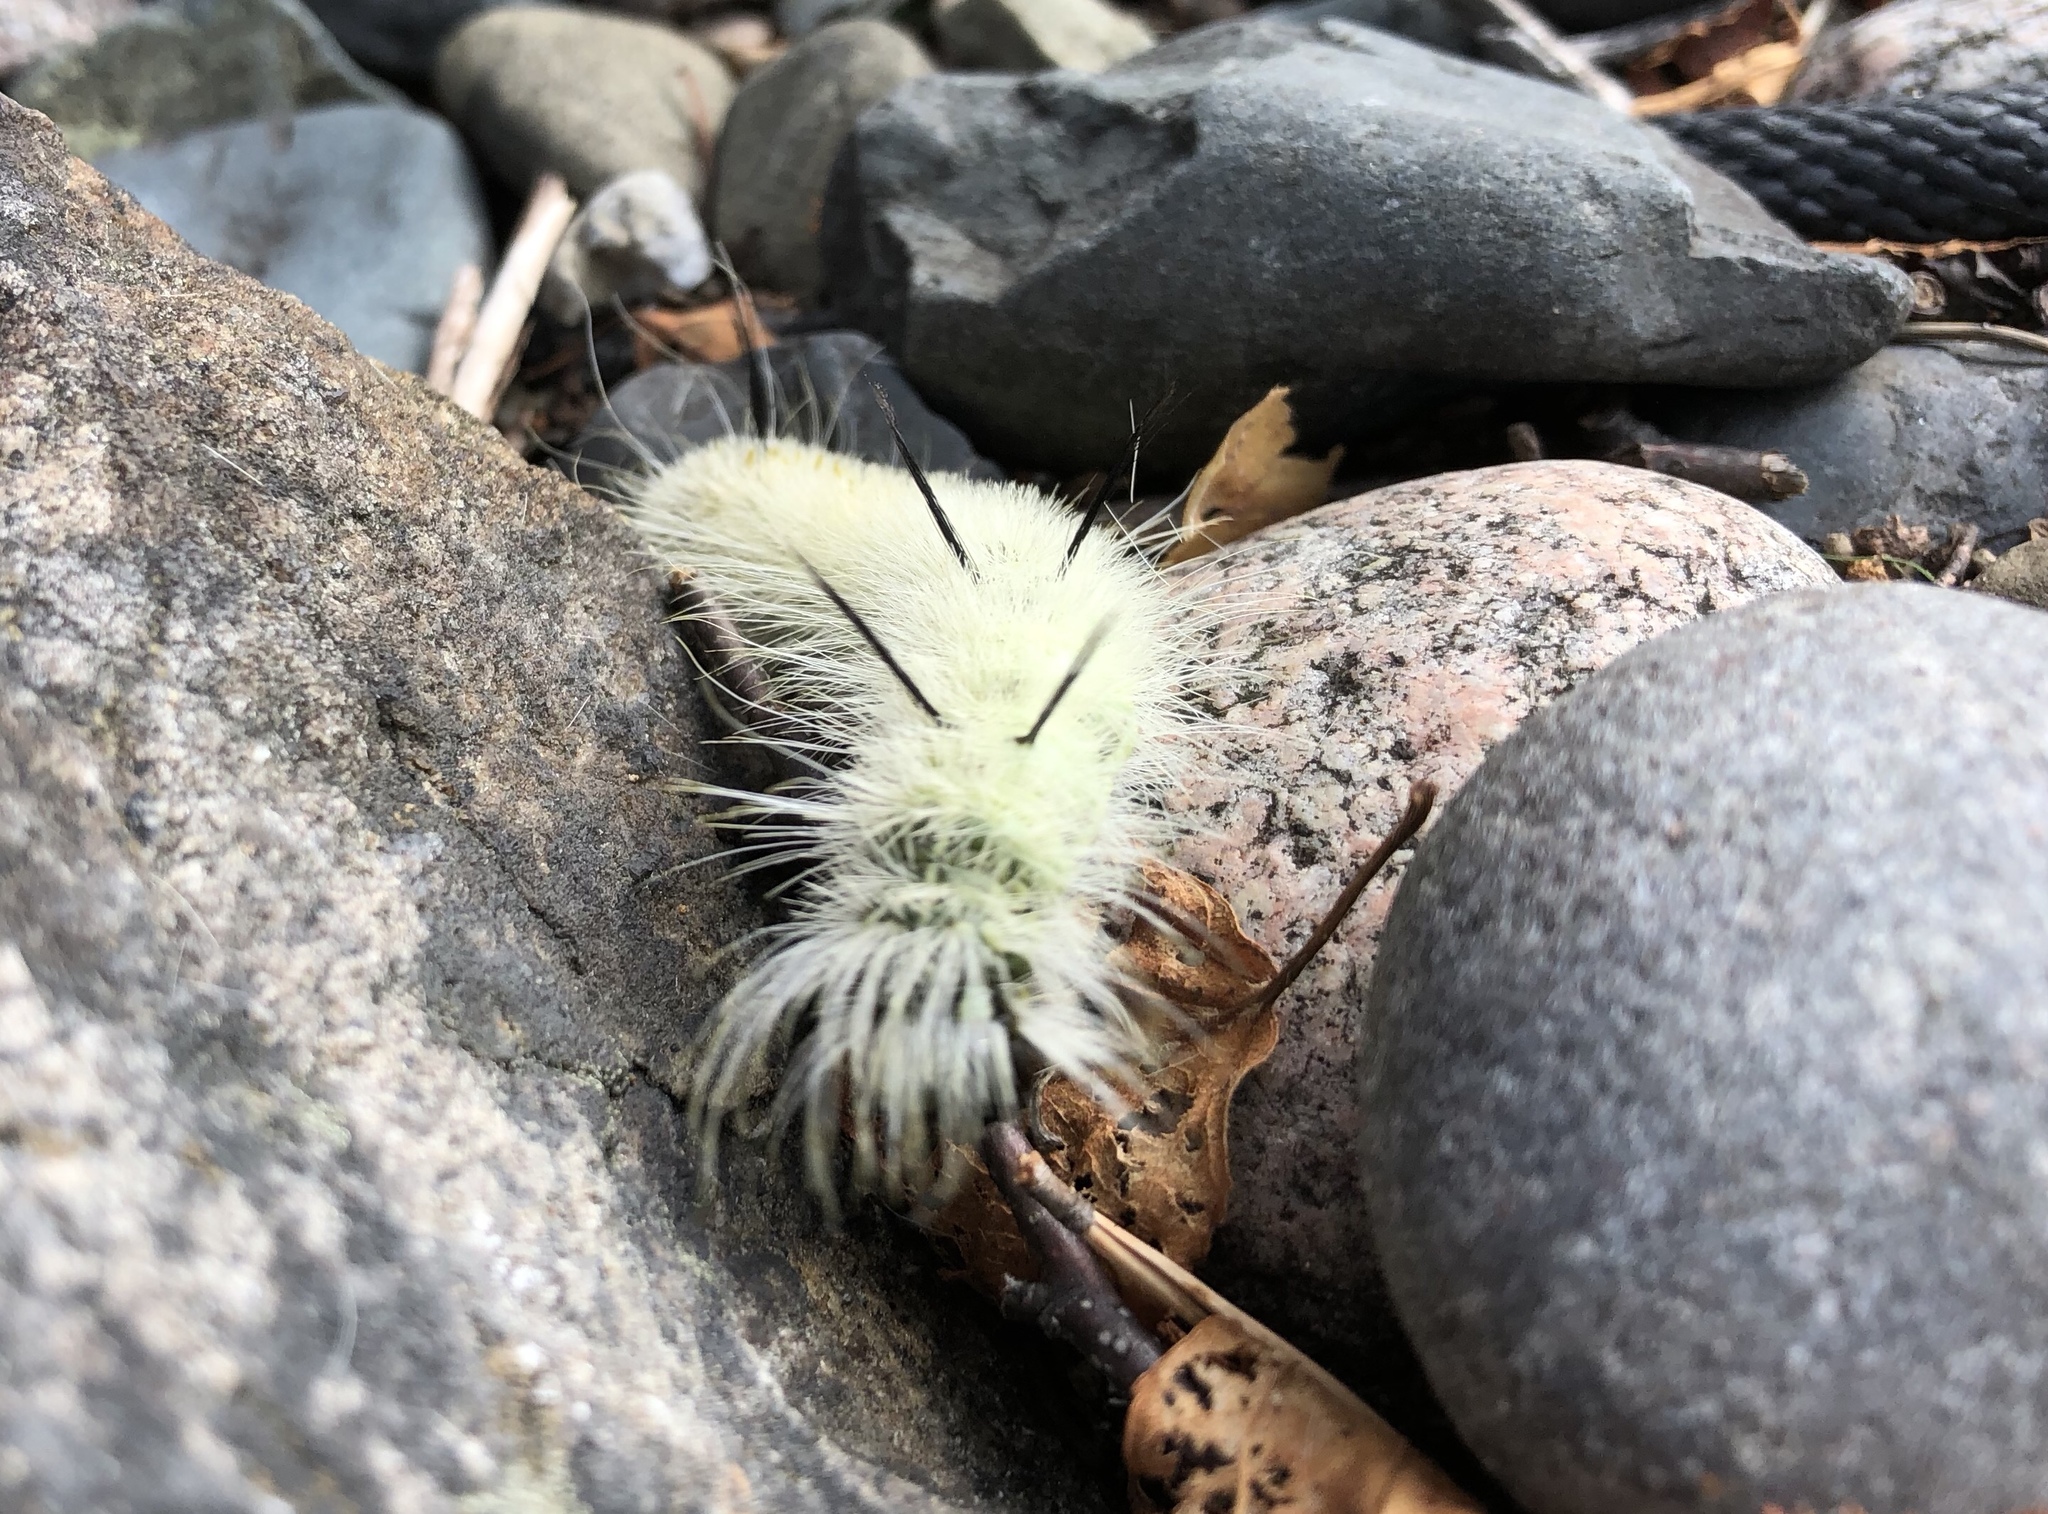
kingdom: Animalia
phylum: Arthropoda
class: Insecta
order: Lepidoptera
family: Noctuidae
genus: Acronicta
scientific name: Acronicta americana
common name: American dagger
